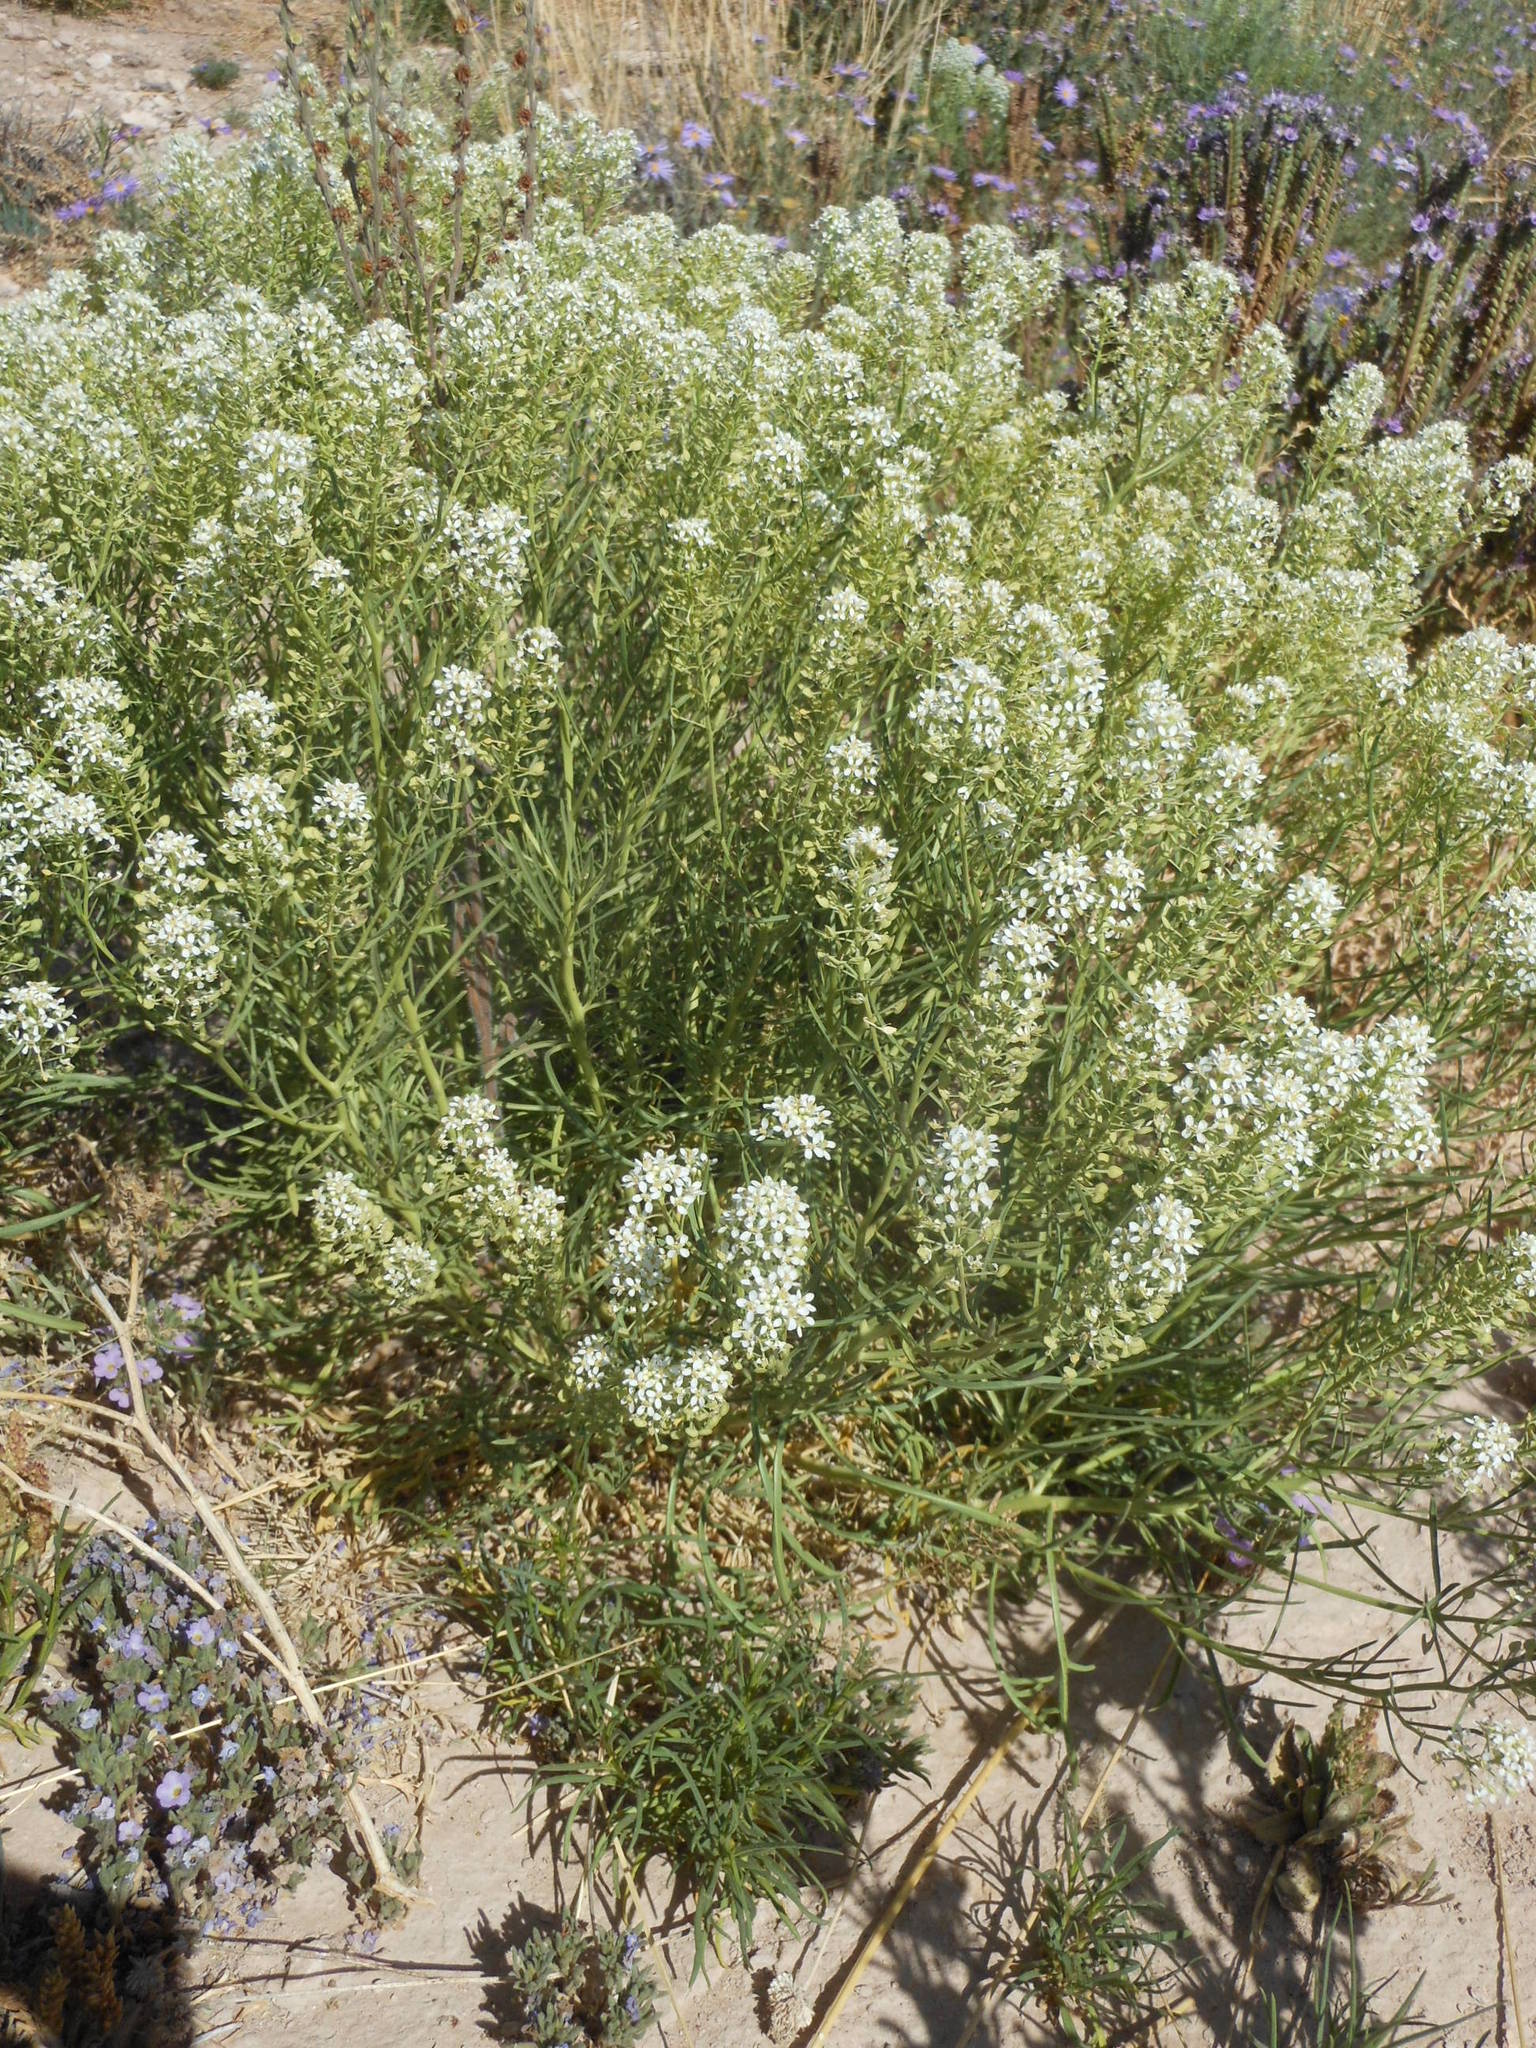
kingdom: Plantae
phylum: Tracheophyta
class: Magnoliopsida
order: Brassicales
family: Brassicaceae
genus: Lepidium
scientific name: Lepidium alyssoides
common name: Mesa pepperweed
